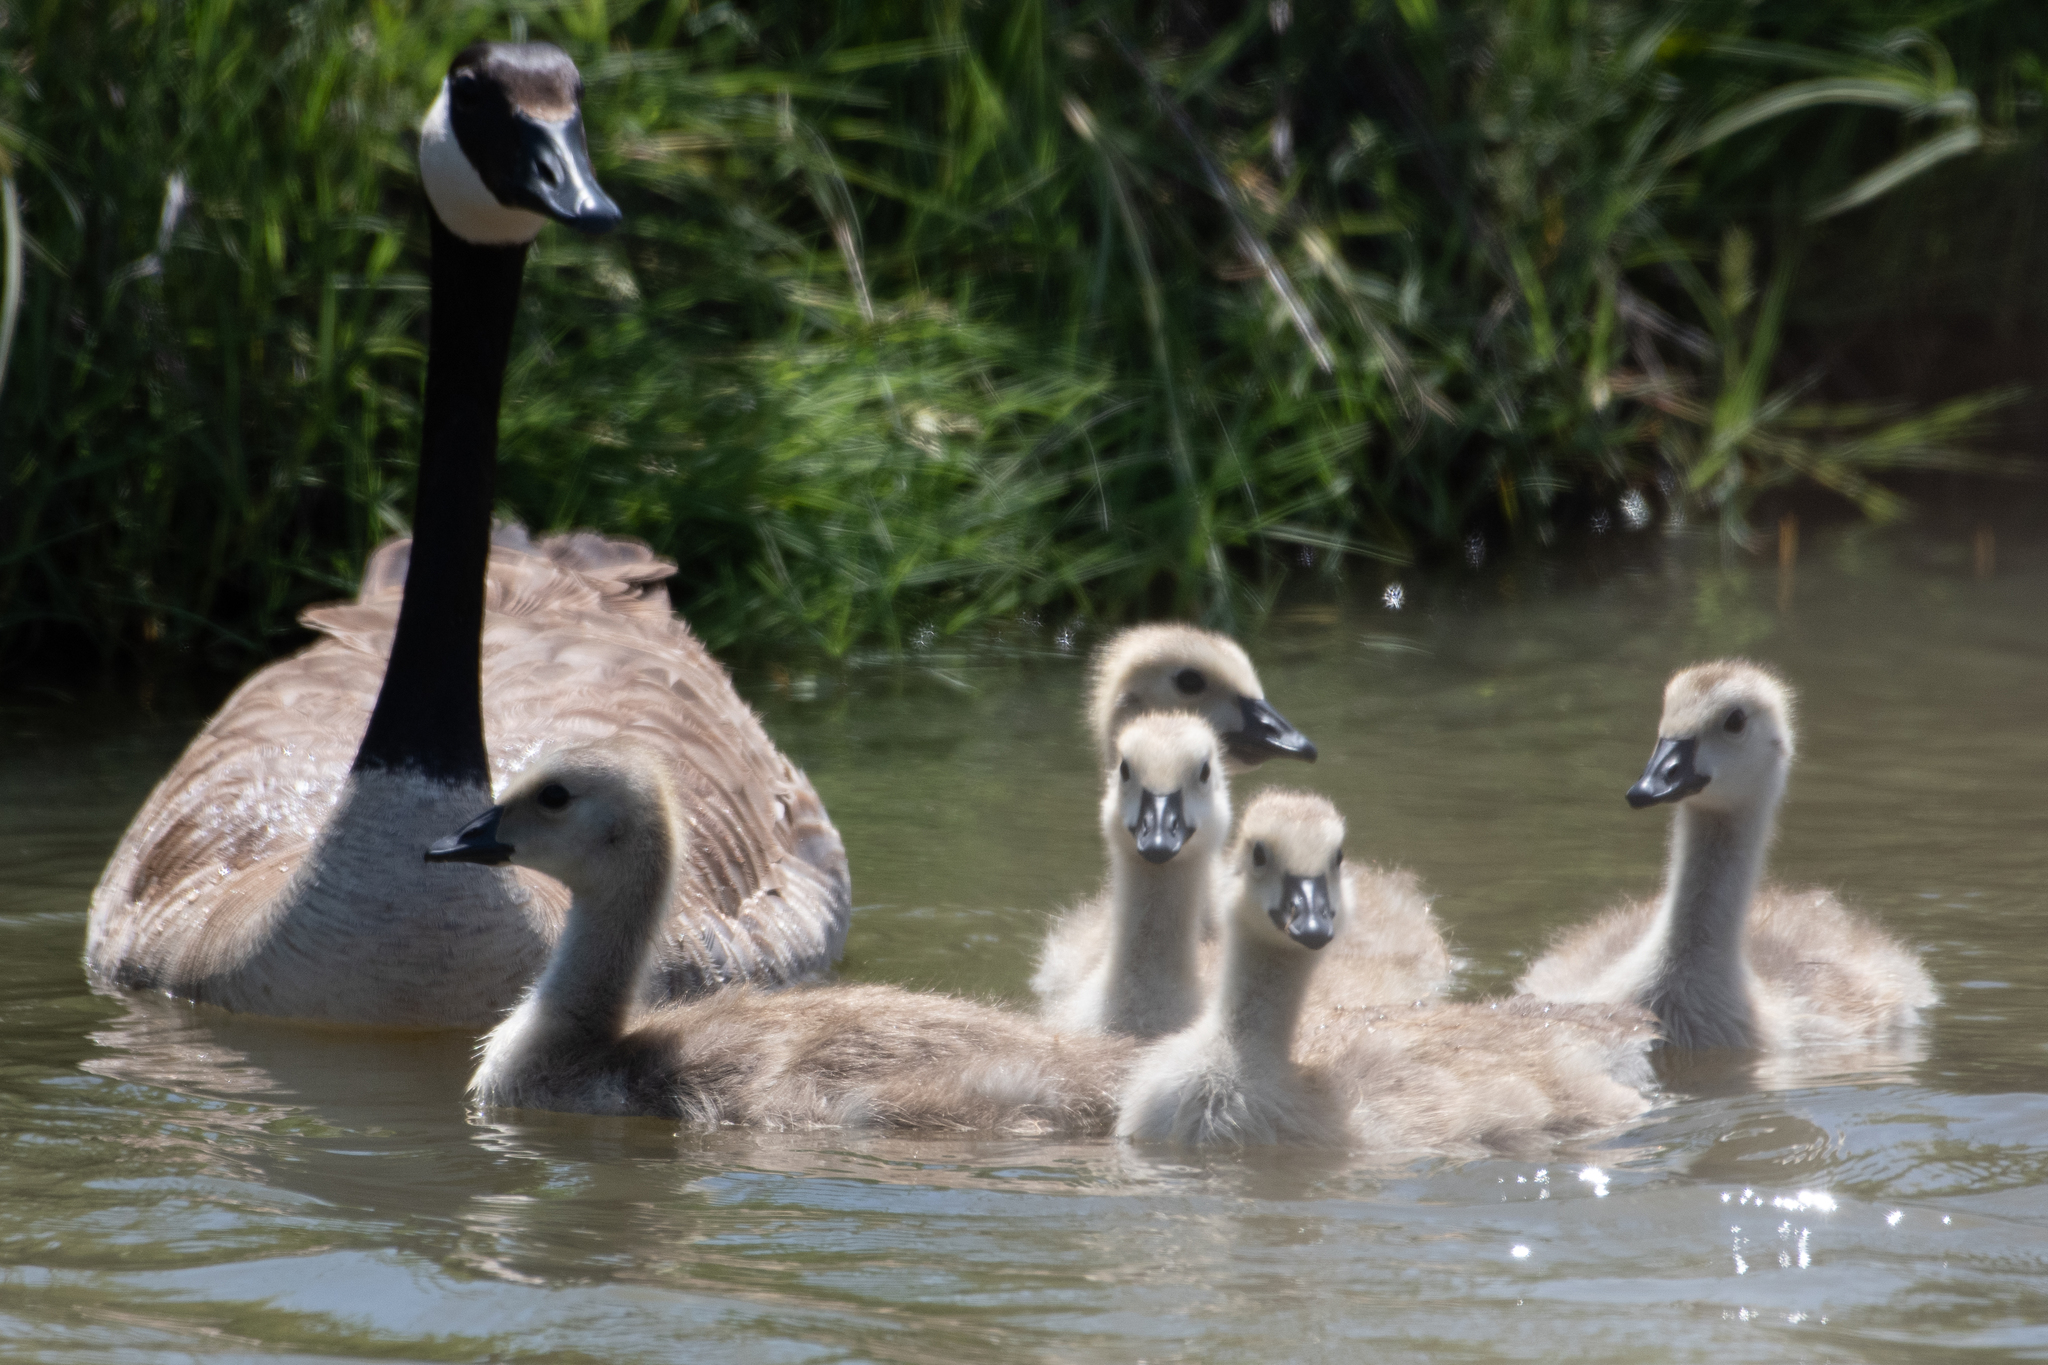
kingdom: Animalia
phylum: Chordata
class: Aves
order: Anseriformes
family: Anatidae
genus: Branta
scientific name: Branta canadensis
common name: Canada goose
